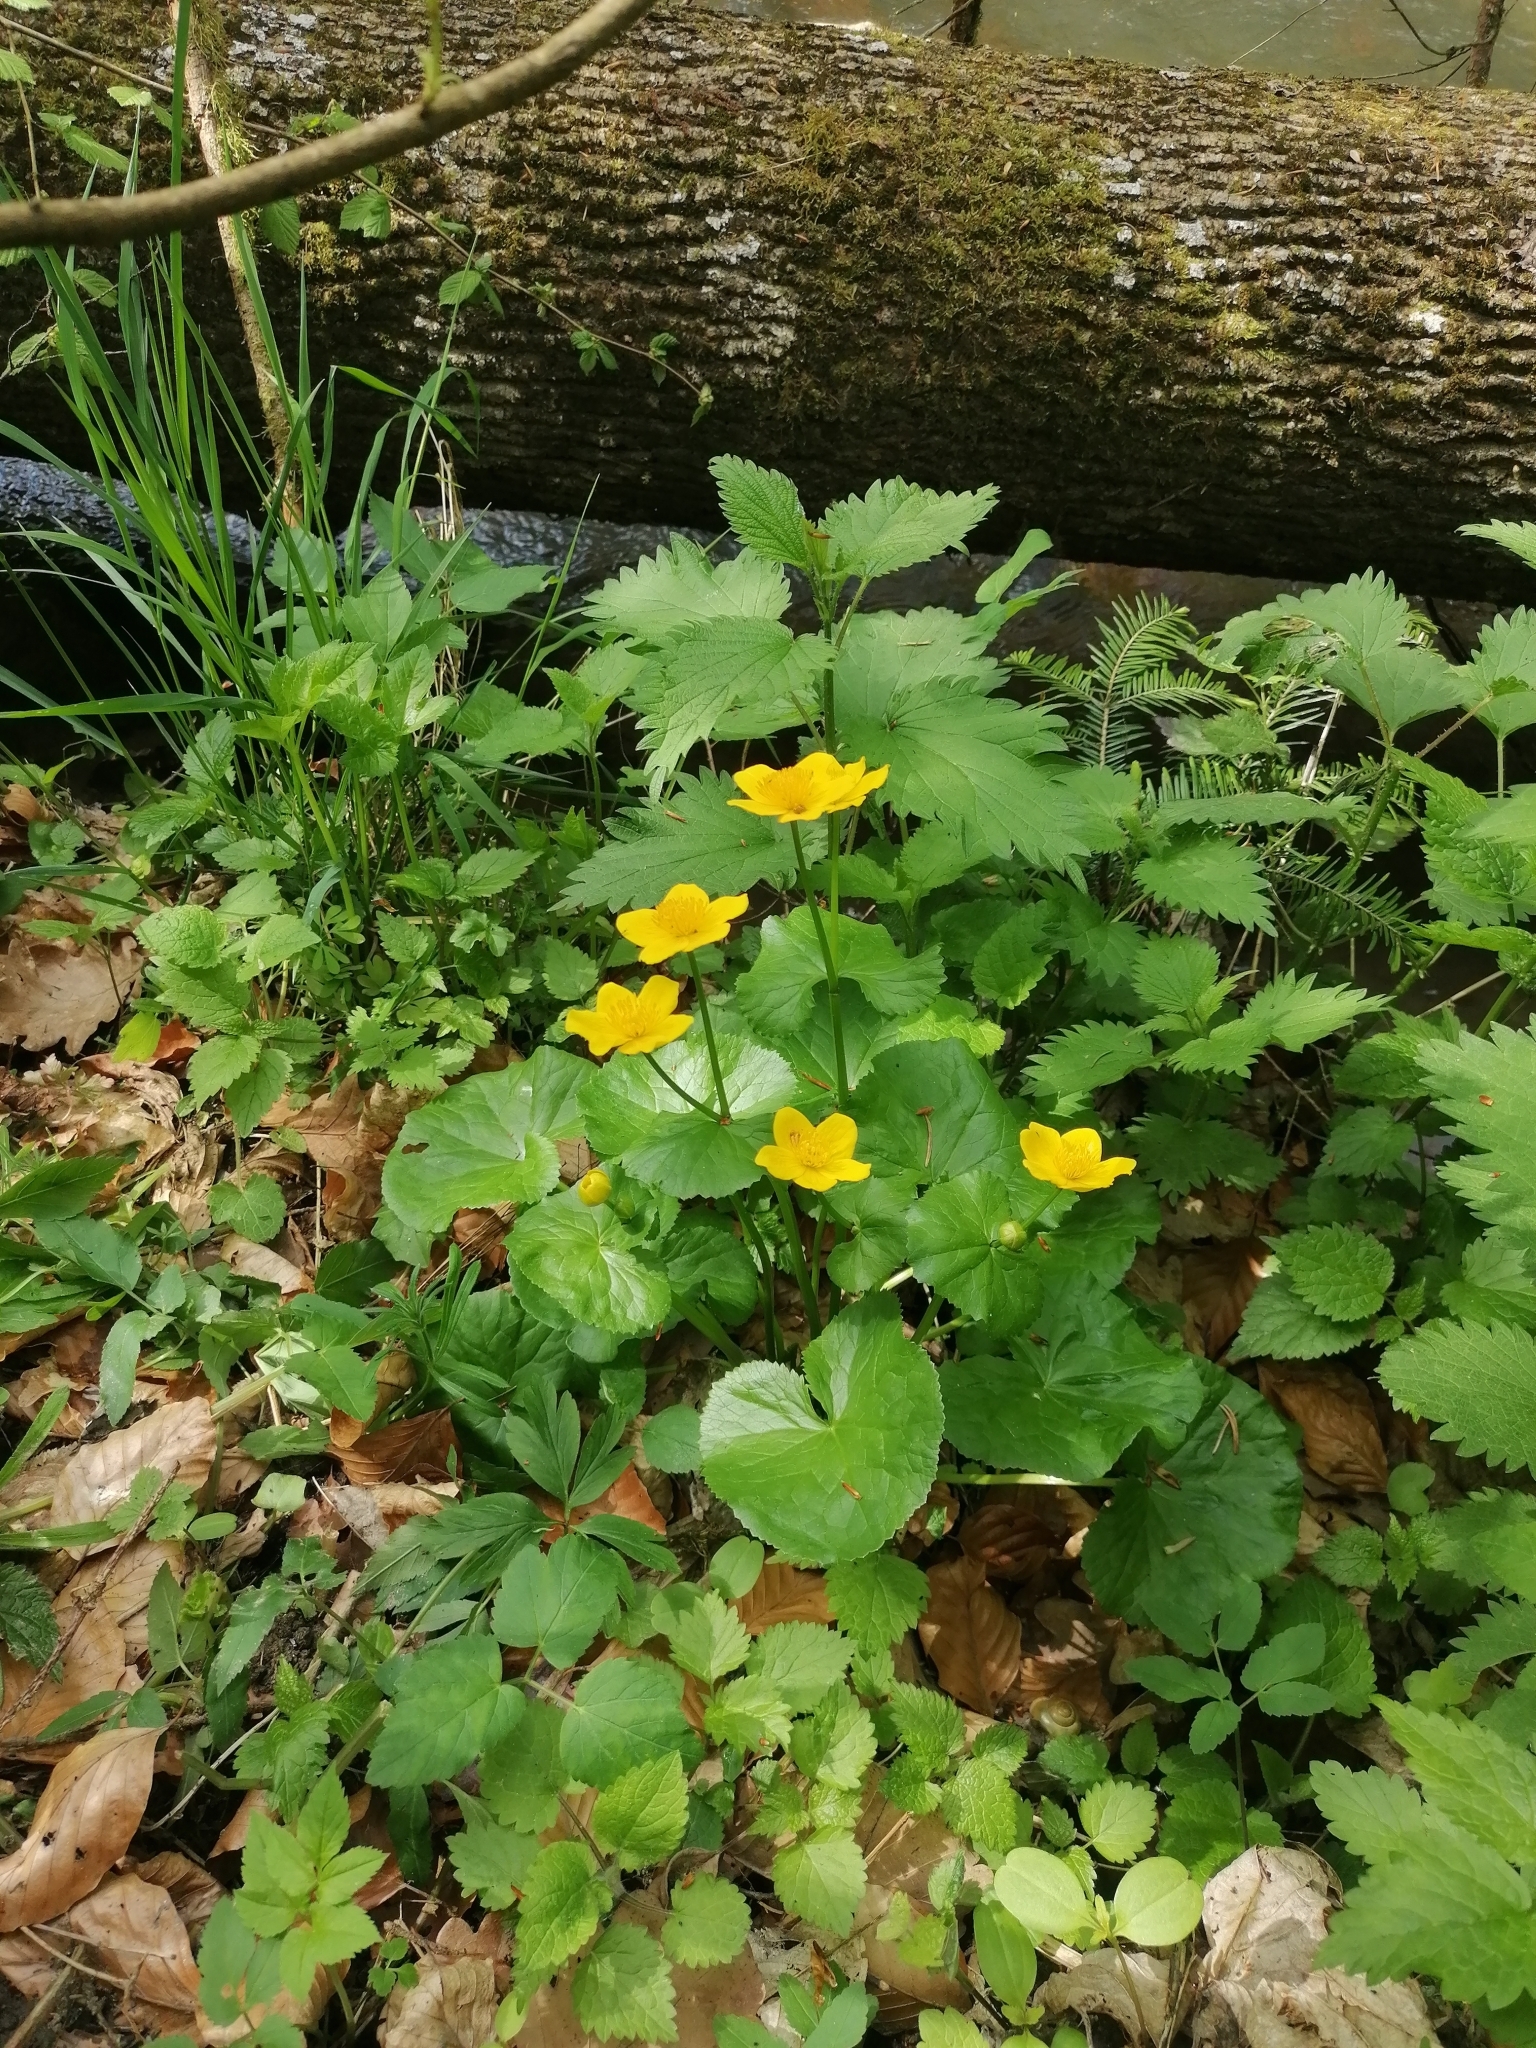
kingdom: Plantae
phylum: Tracheophyta
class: Magnoliopsida
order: Ranunculales
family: Ranunculaceae
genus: Caltha
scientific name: Caltha palustris
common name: Marsh marigold
